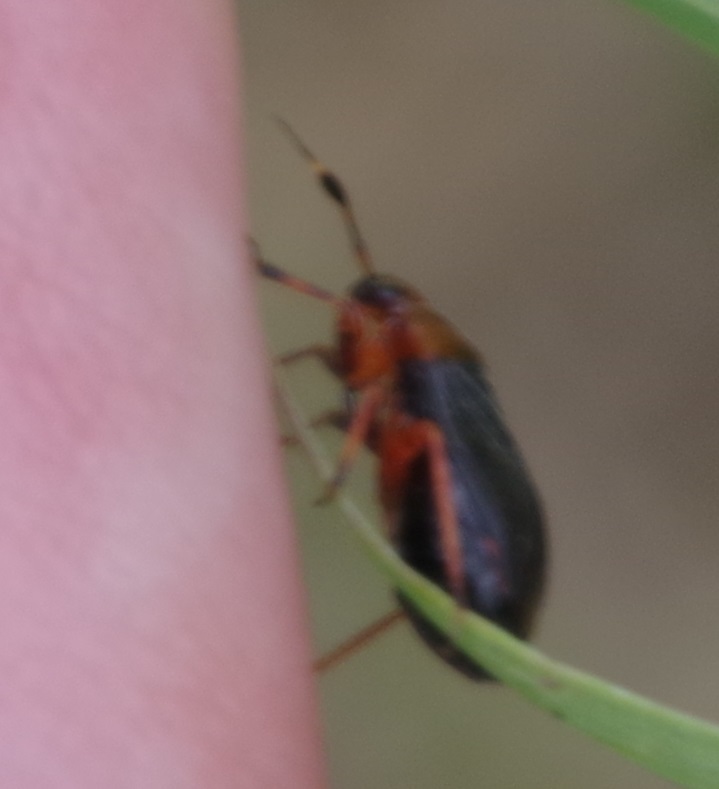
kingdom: Animalia
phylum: Arthropoda
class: Insecta
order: Hemiptera
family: Miridae
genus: Capsus
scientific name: Capsus ater
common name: Black plant bug
